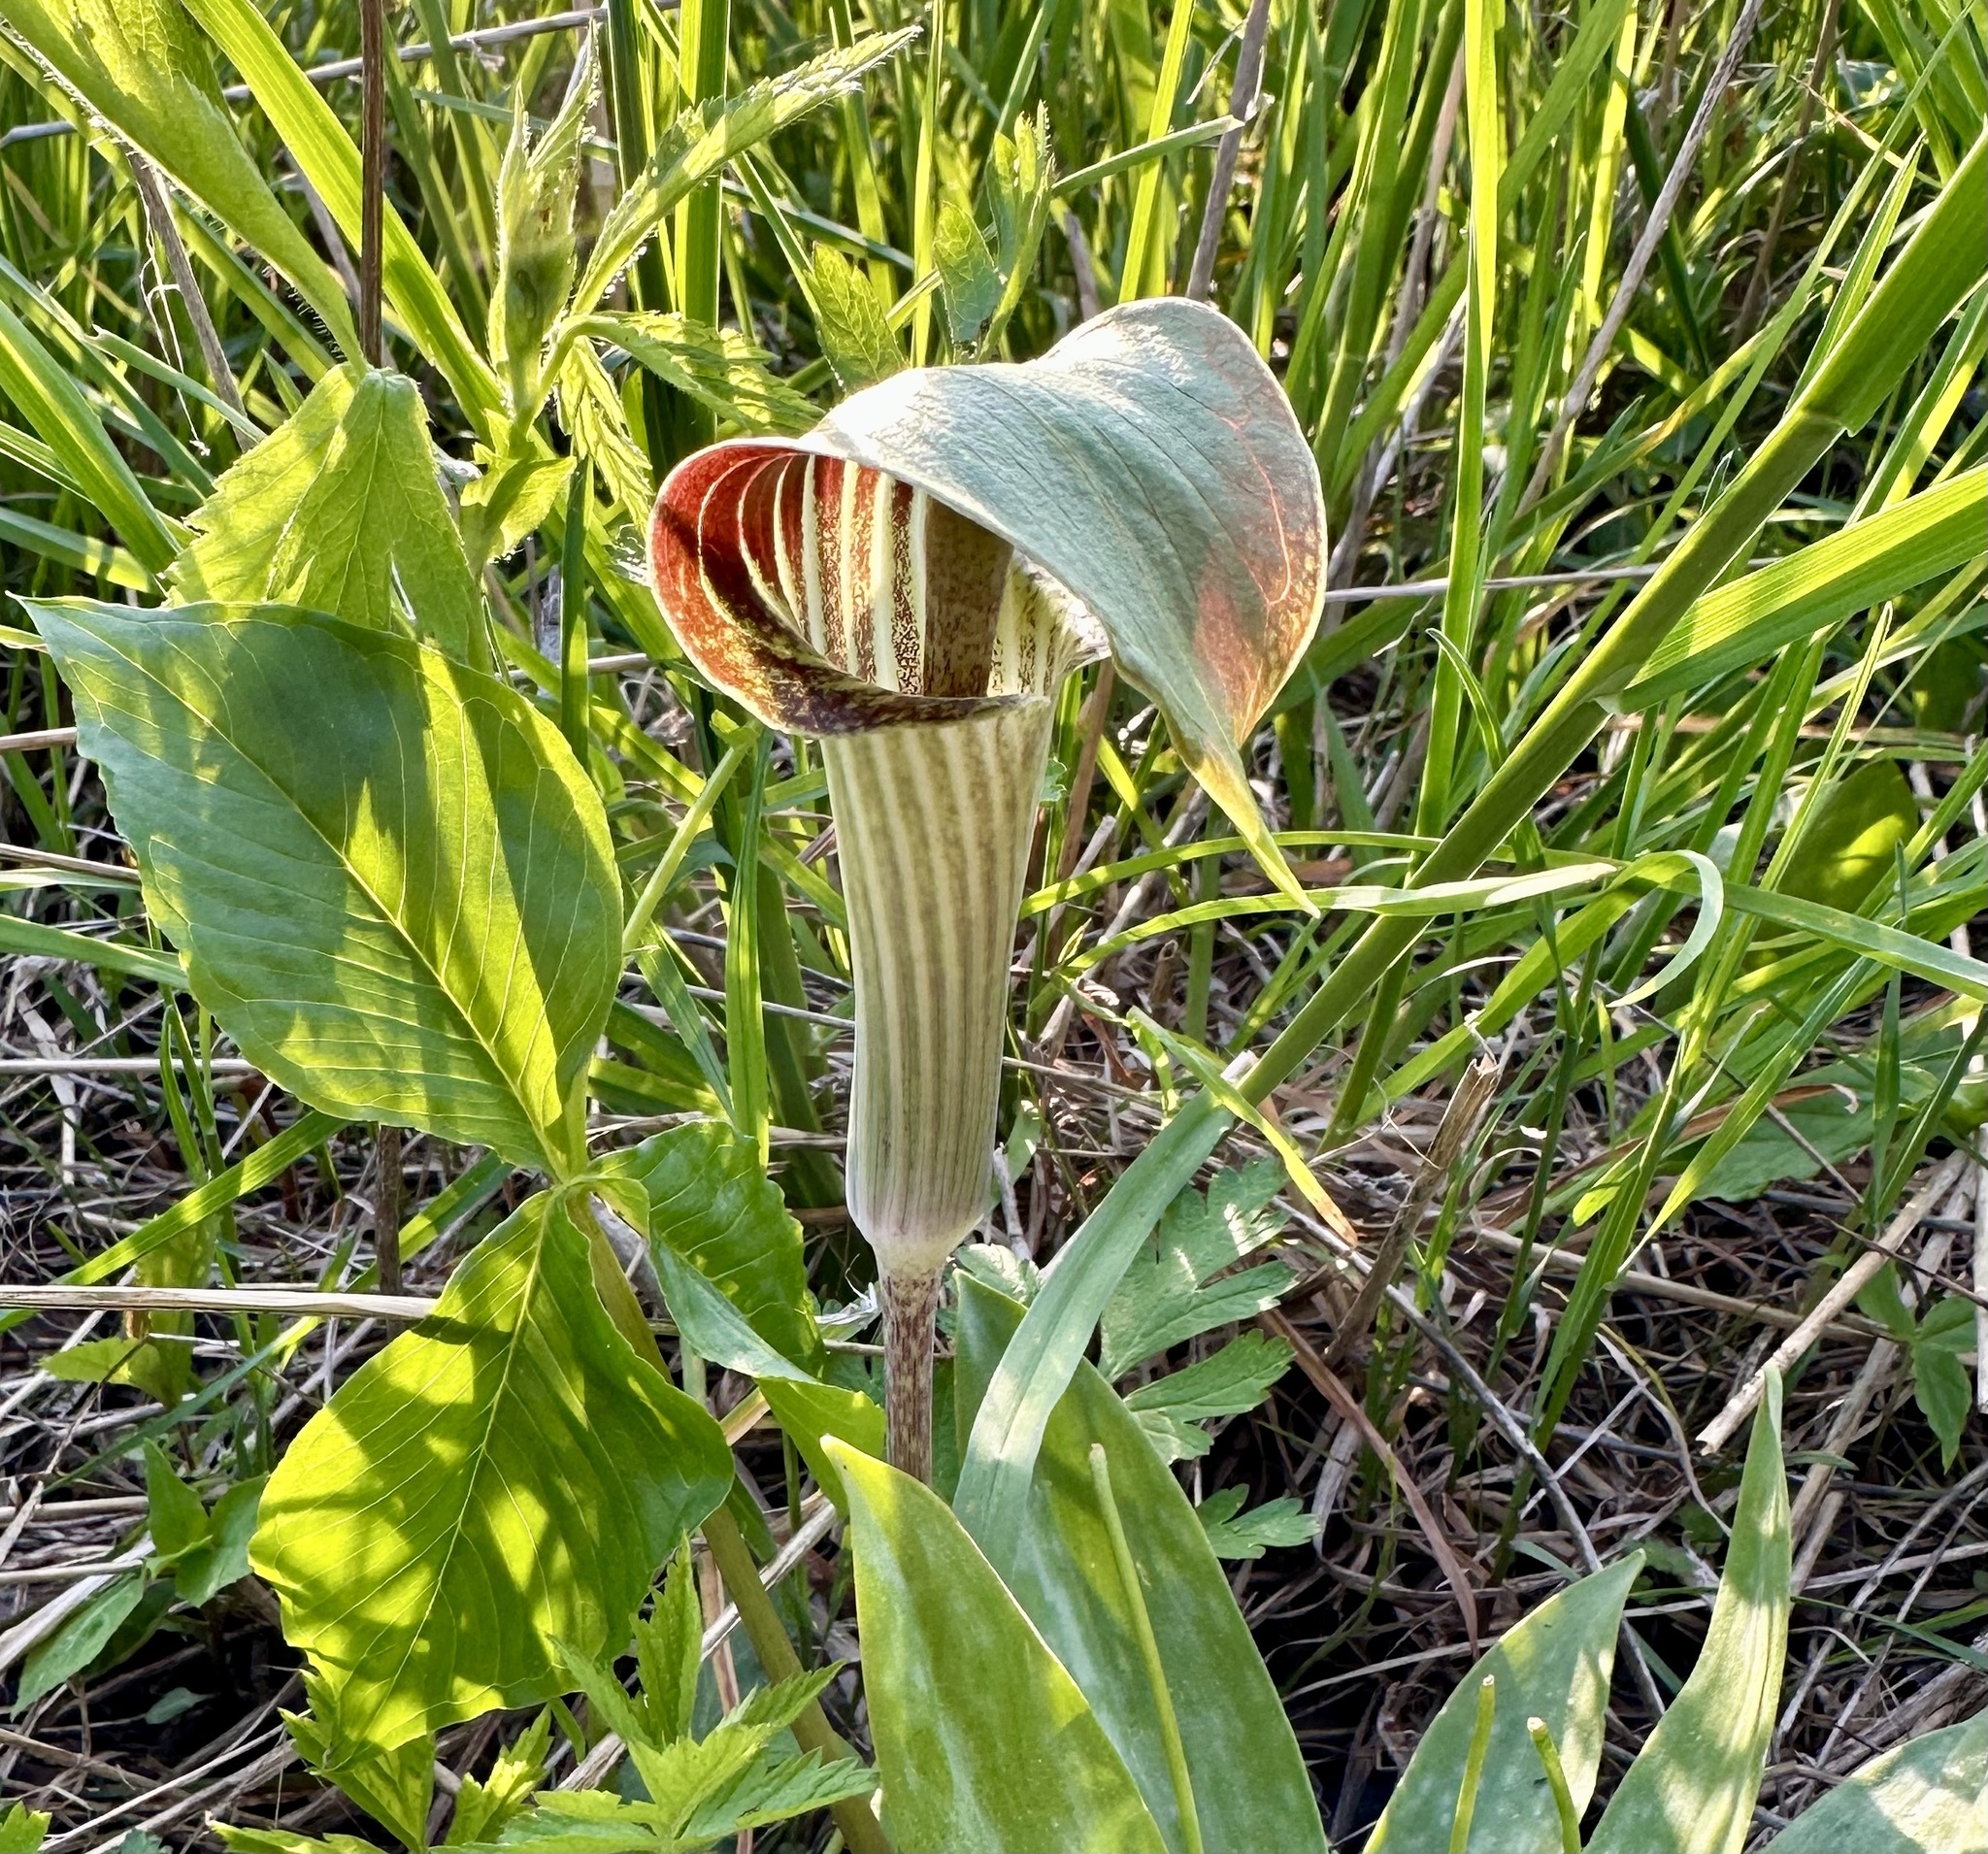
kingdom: Plantae
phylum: Tracheophyta
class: Liliopsida
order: Alismatales
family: Araceae
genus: Arisaema
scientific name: Arisaema triphyllum
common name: Jack-in-the-pulpit
